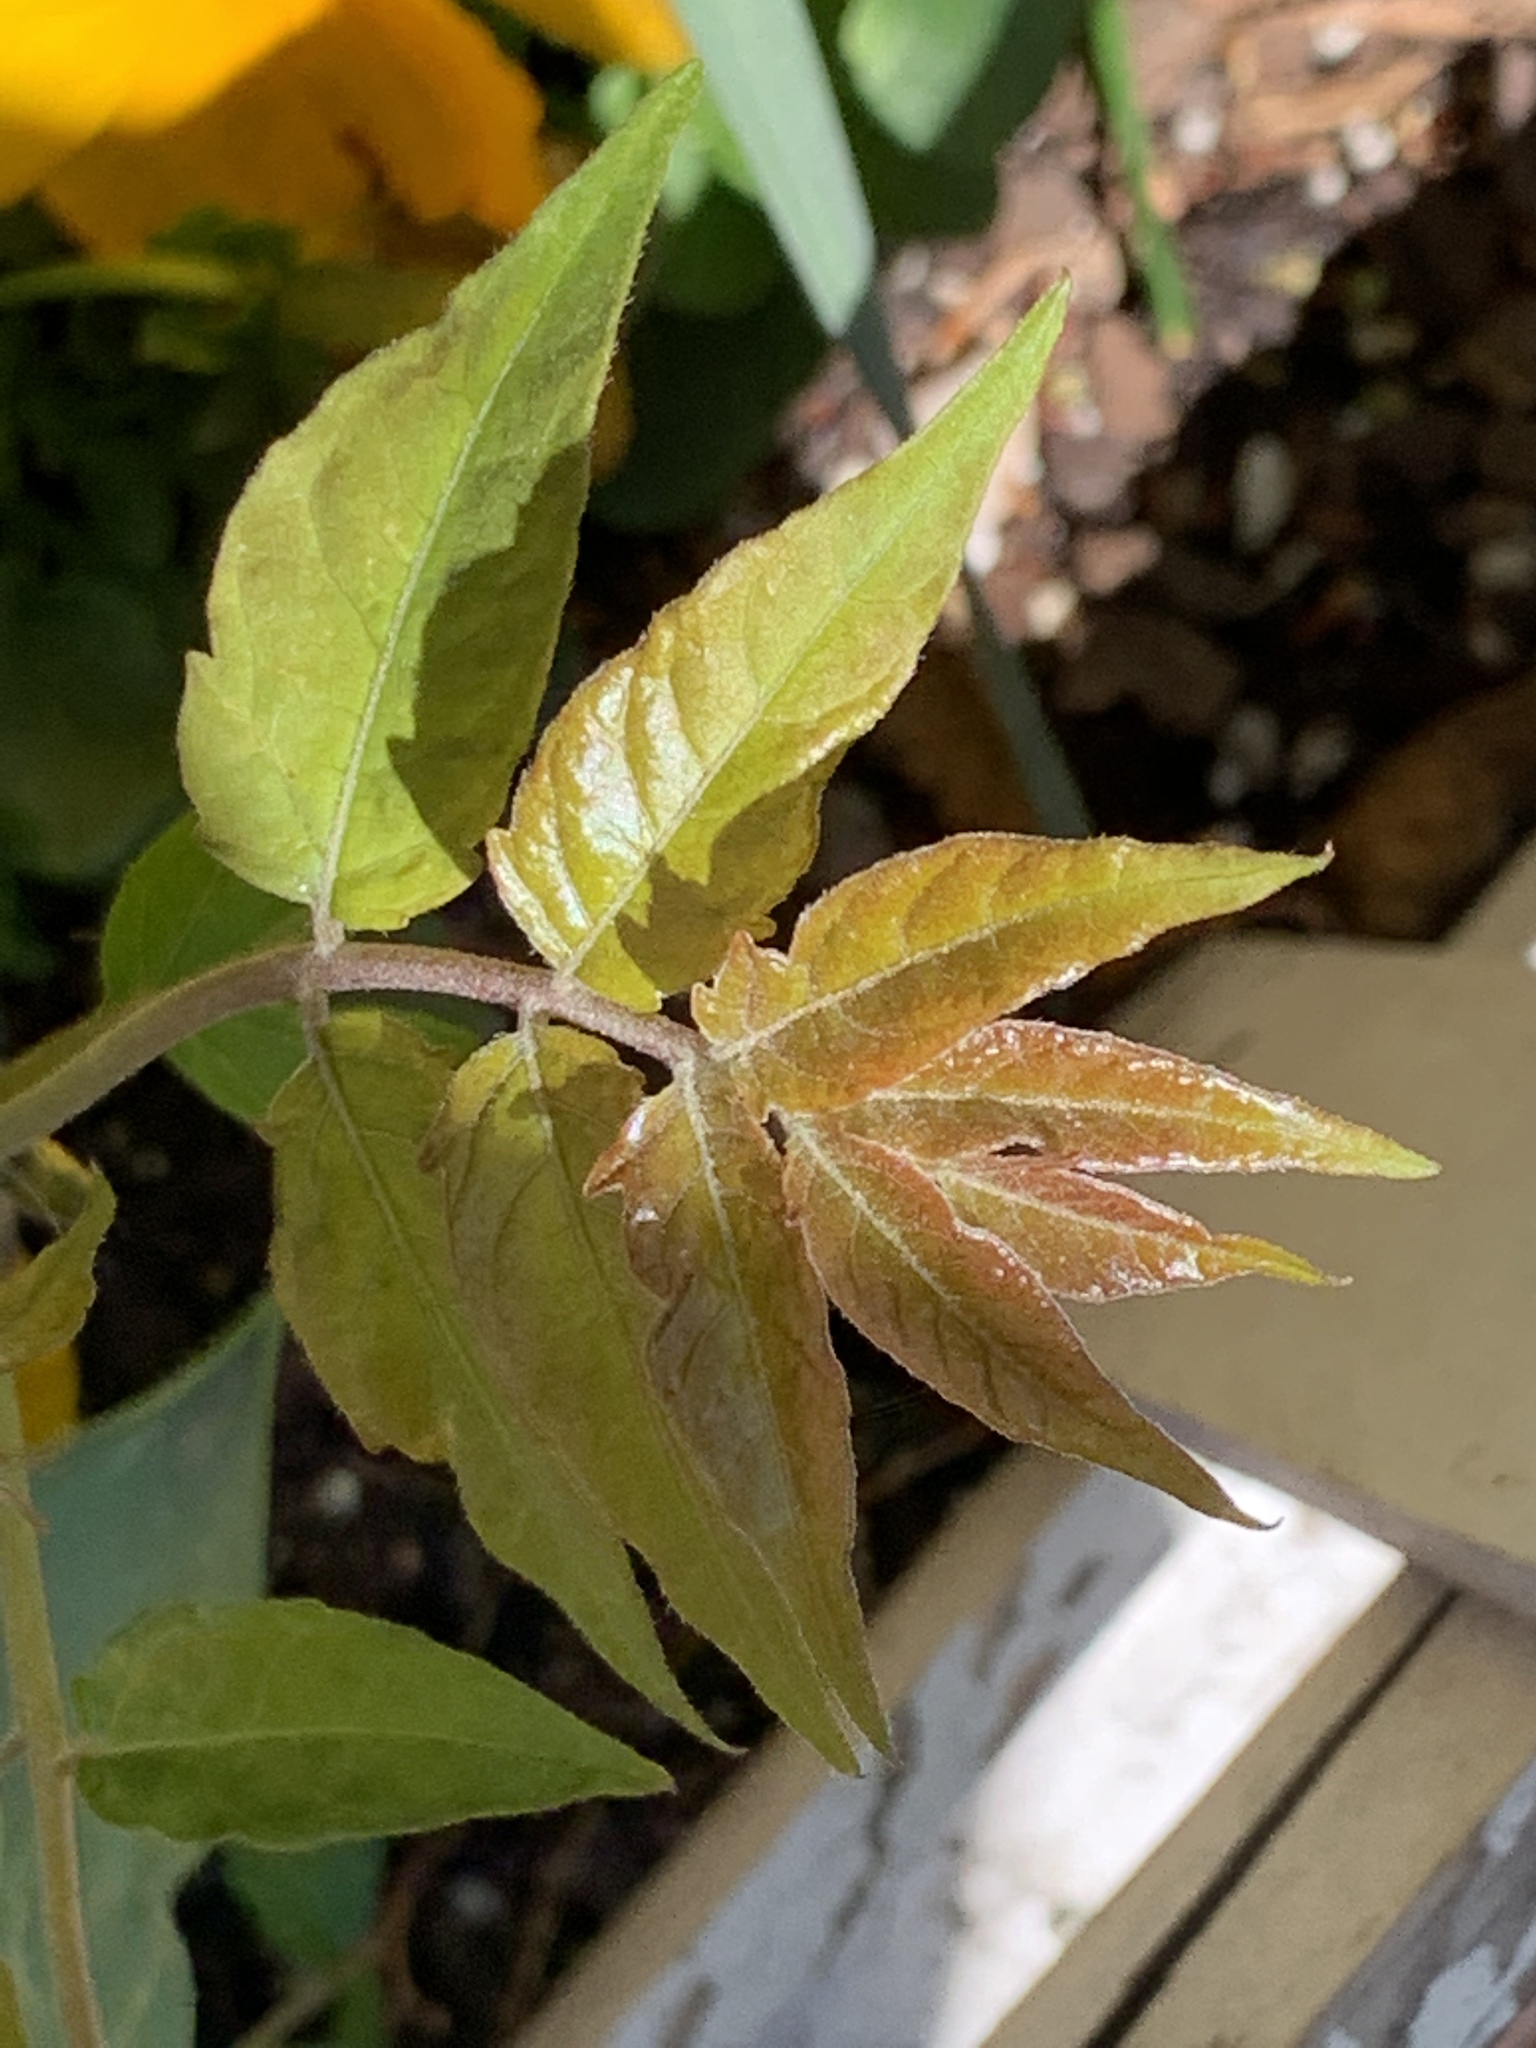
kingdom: Plantae
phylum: Tracheophyta
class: Magnoliopsida
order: Sapindales
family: Simaroubaceae
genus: Ailanthus
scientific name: Ailanthus altissima
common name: Tree-of-heaven
